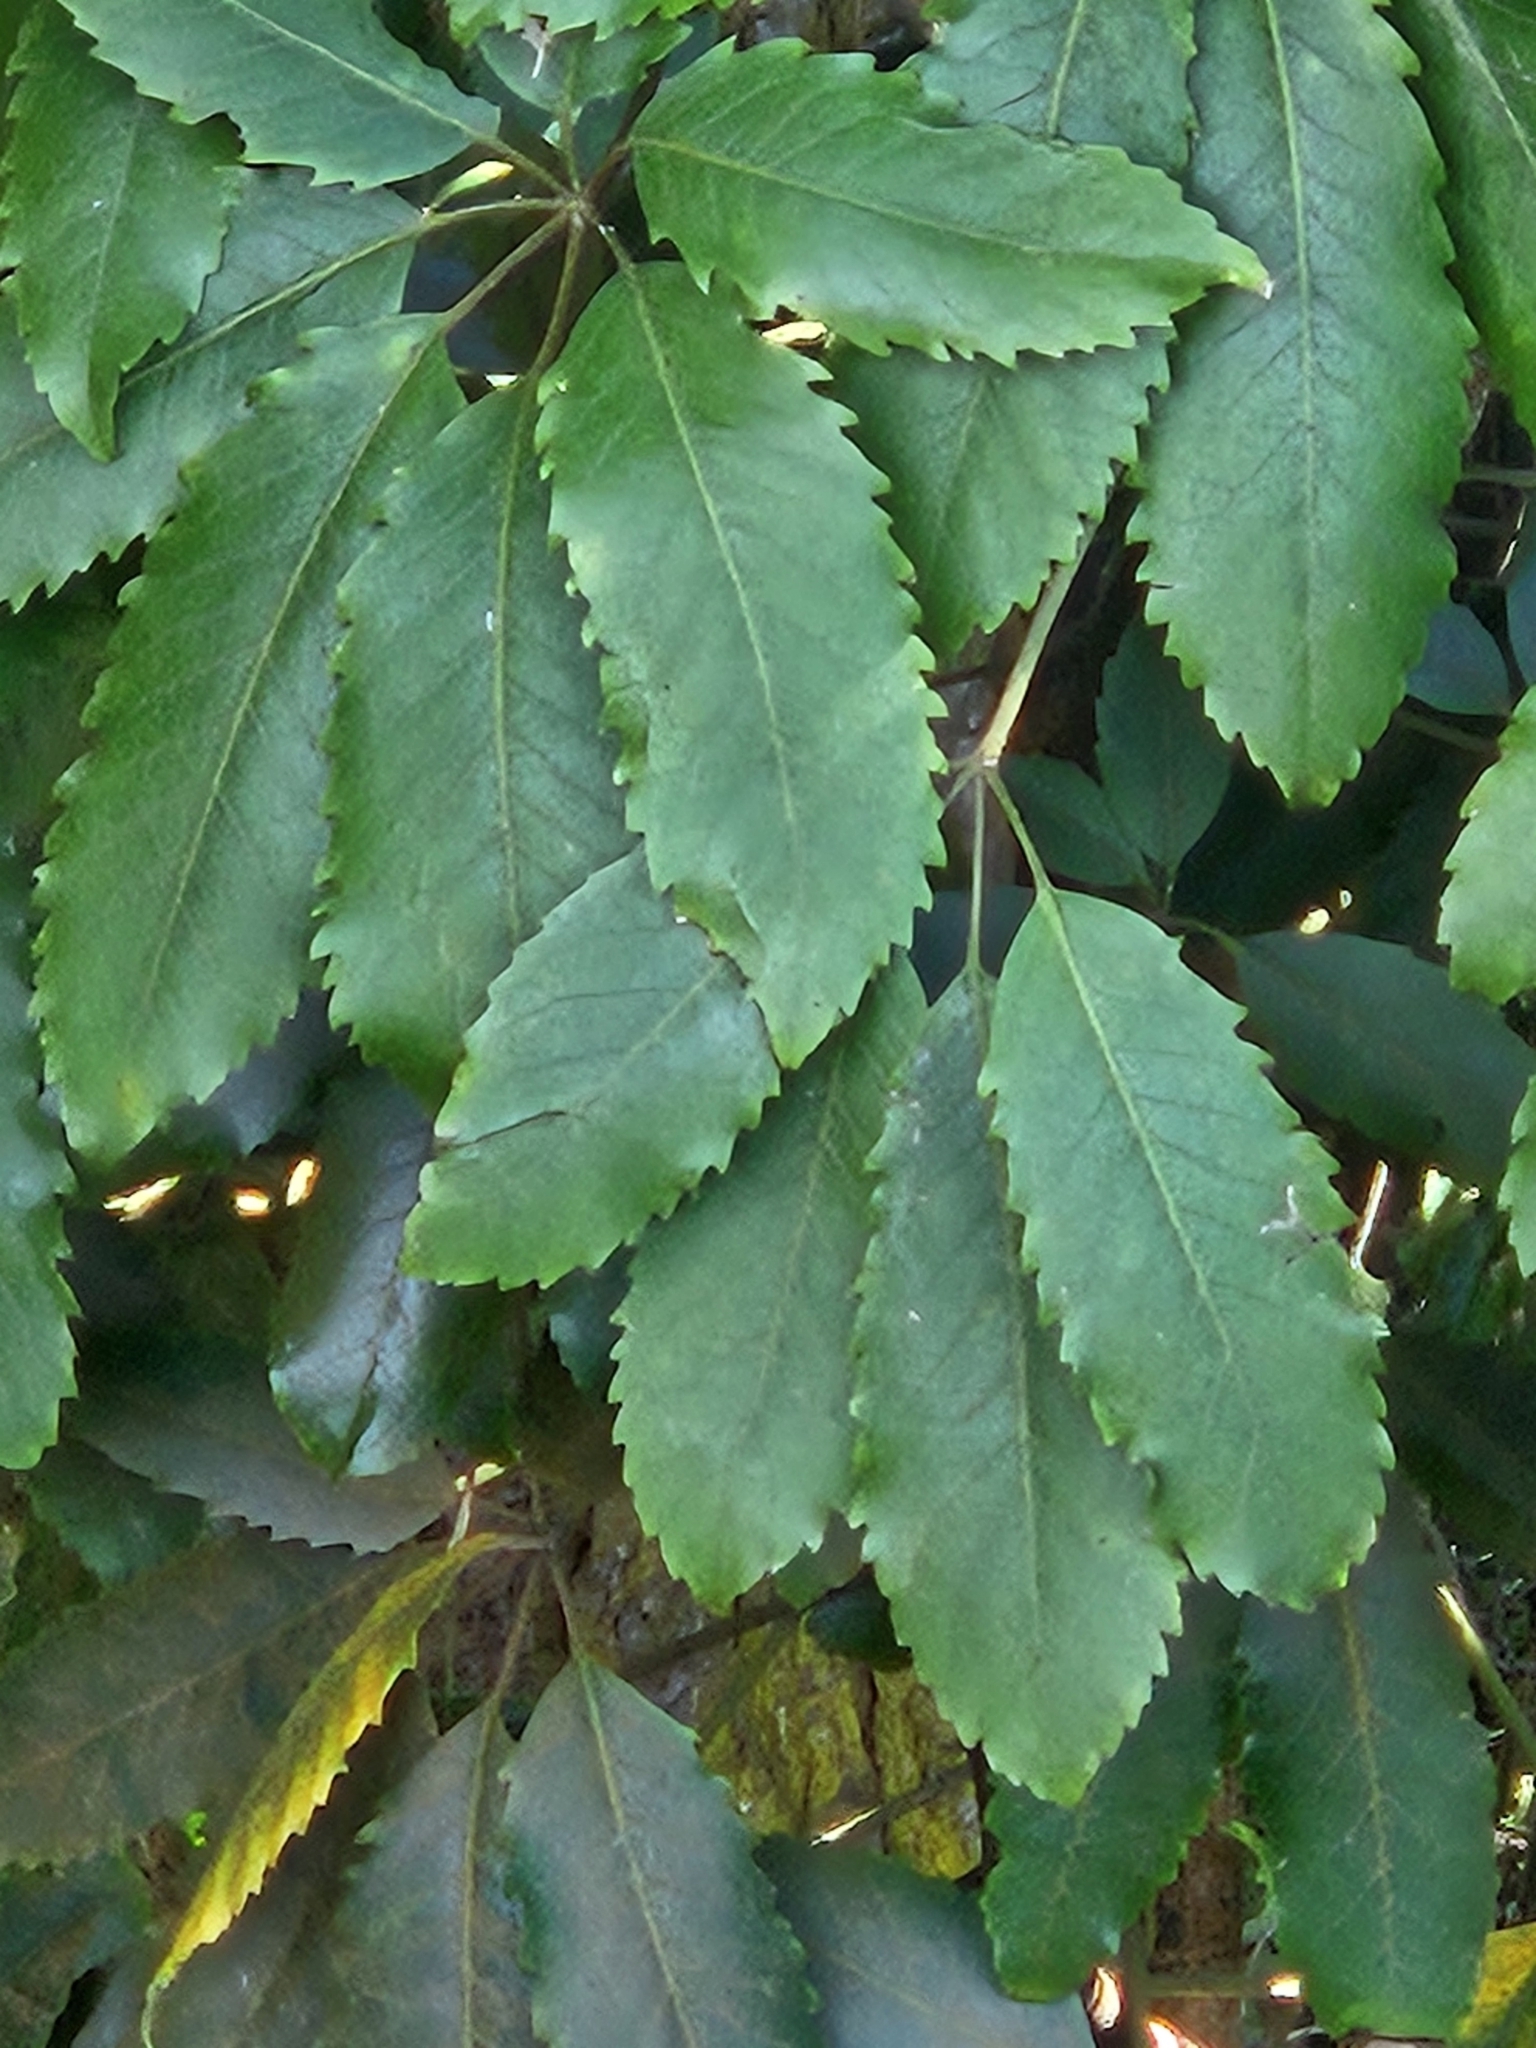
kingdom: Plantae
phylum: Tracheophyta
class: Magnoliopsida
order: Apiales
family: Araliaceae
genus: Neopanax
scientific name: Neopanax arboreus
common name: Five-fingers
